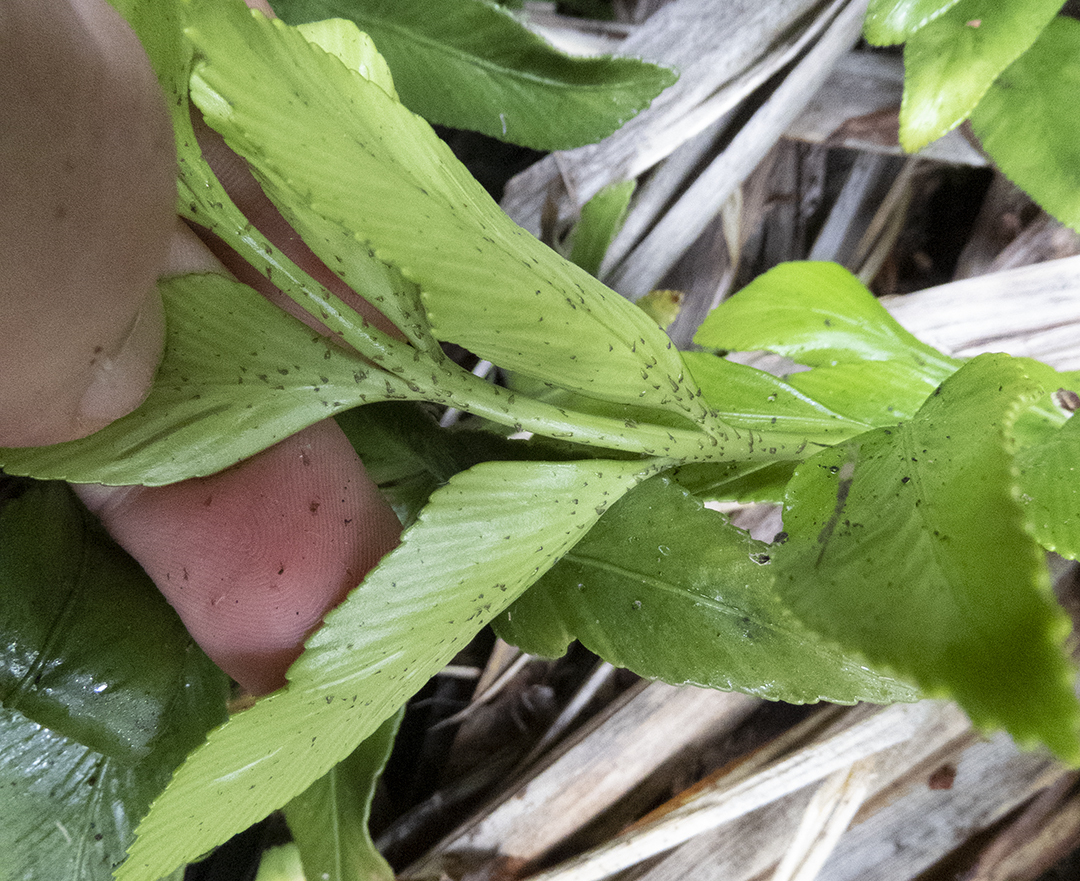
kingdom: Plantae
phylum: Tracheophyta
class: Polypodiopsida
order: Polypodiales
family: Aspleniaceae
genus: Asplenium
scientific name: Asplenium obtusatum
